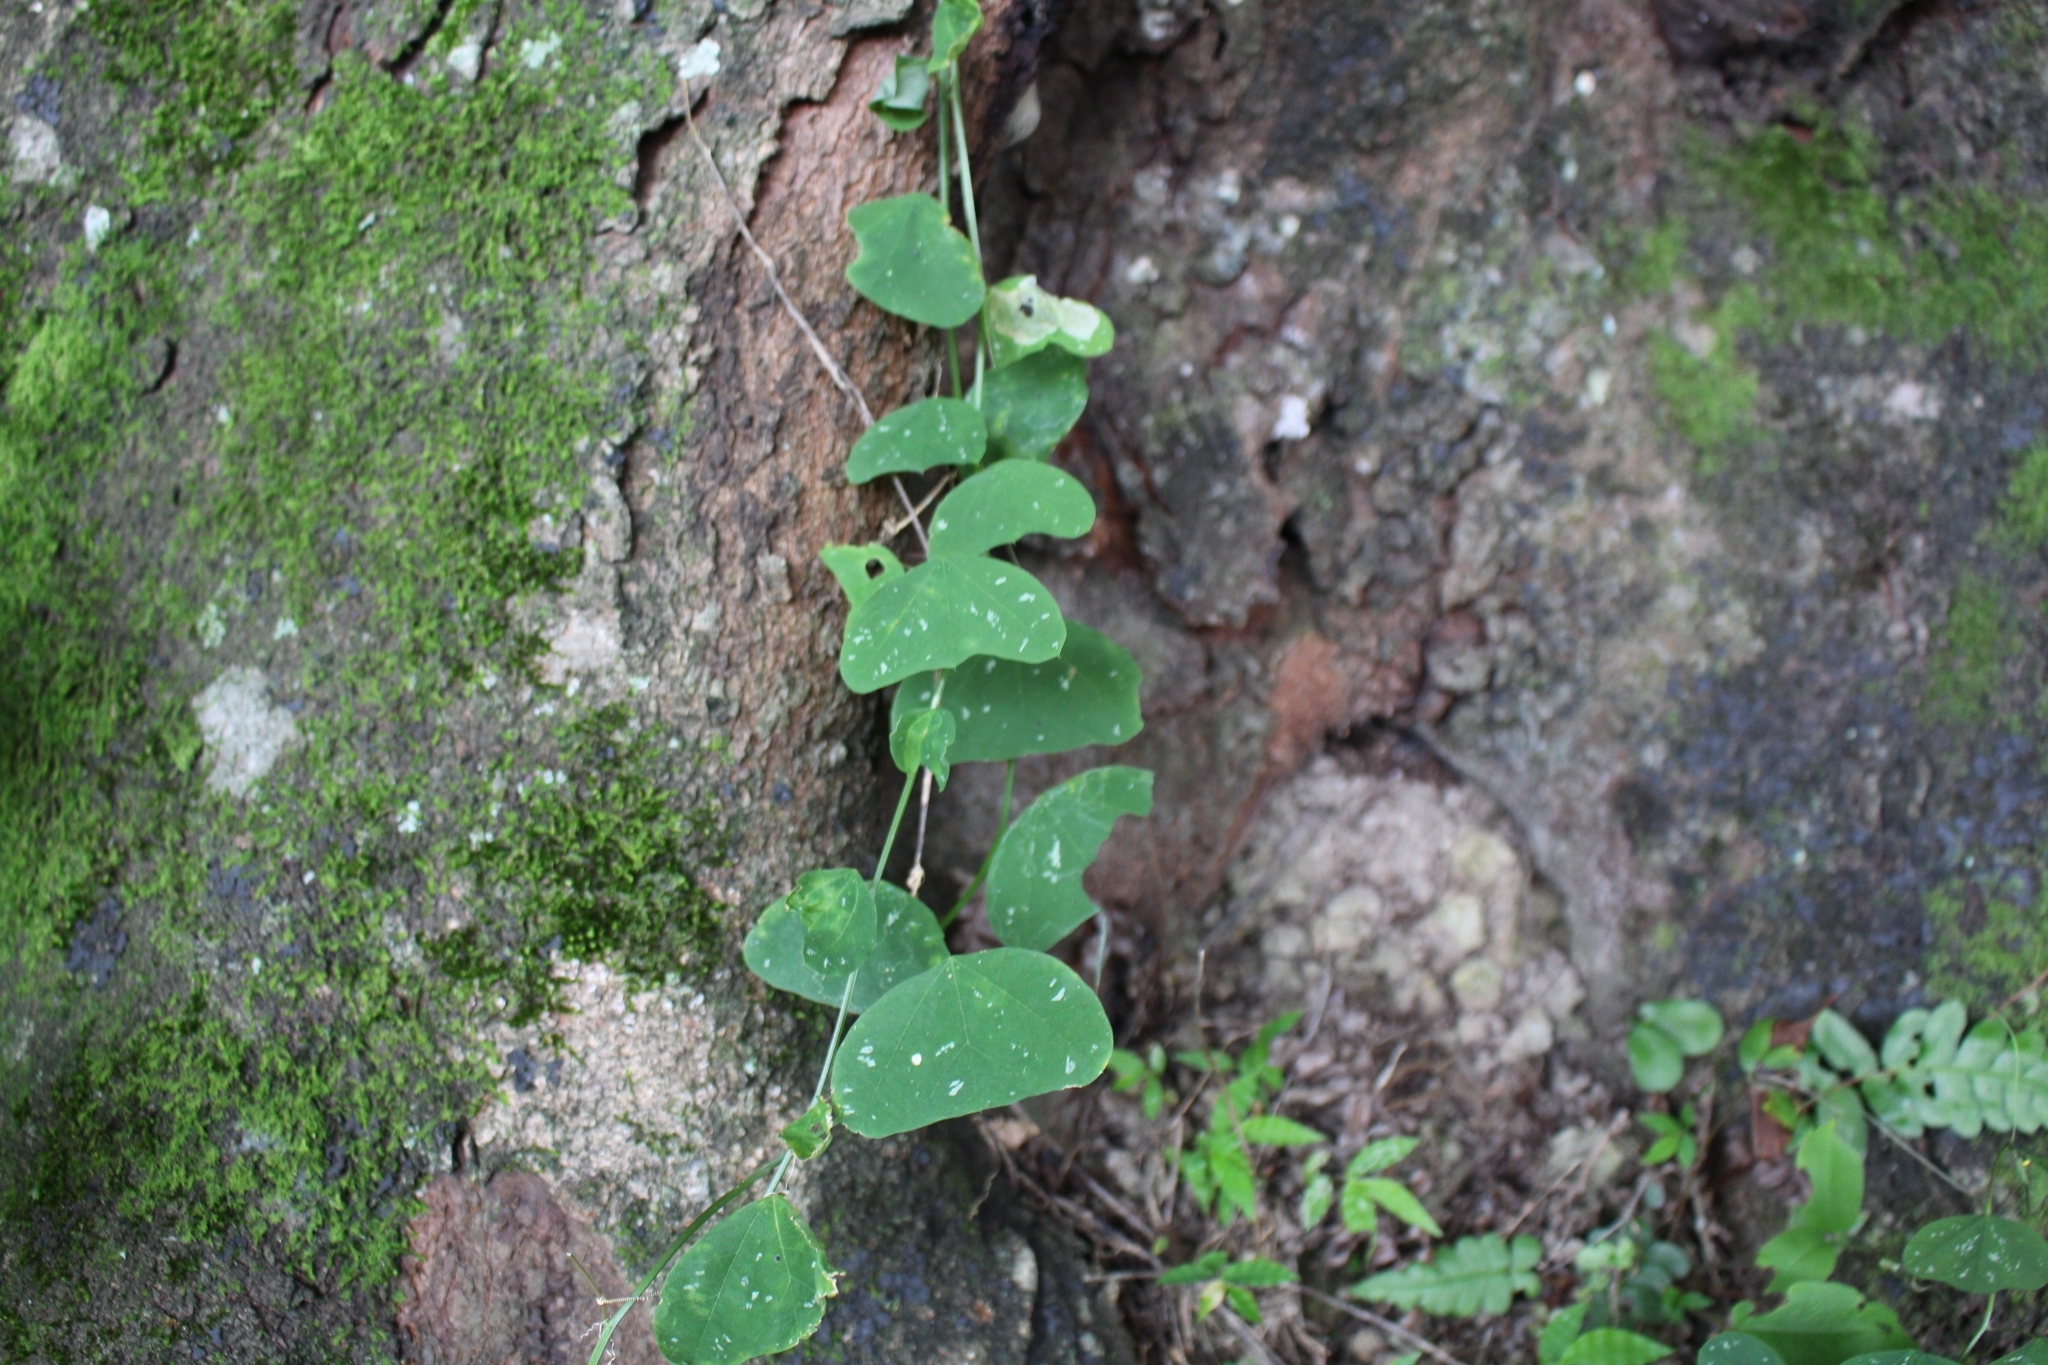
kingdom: Plantae
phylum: Tracheophyta
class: Magnoliopsida
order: Malpighiales
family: Passifloraceae
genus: Passiflora
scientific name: Passiflora biflora
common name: Twoflower passionflower
